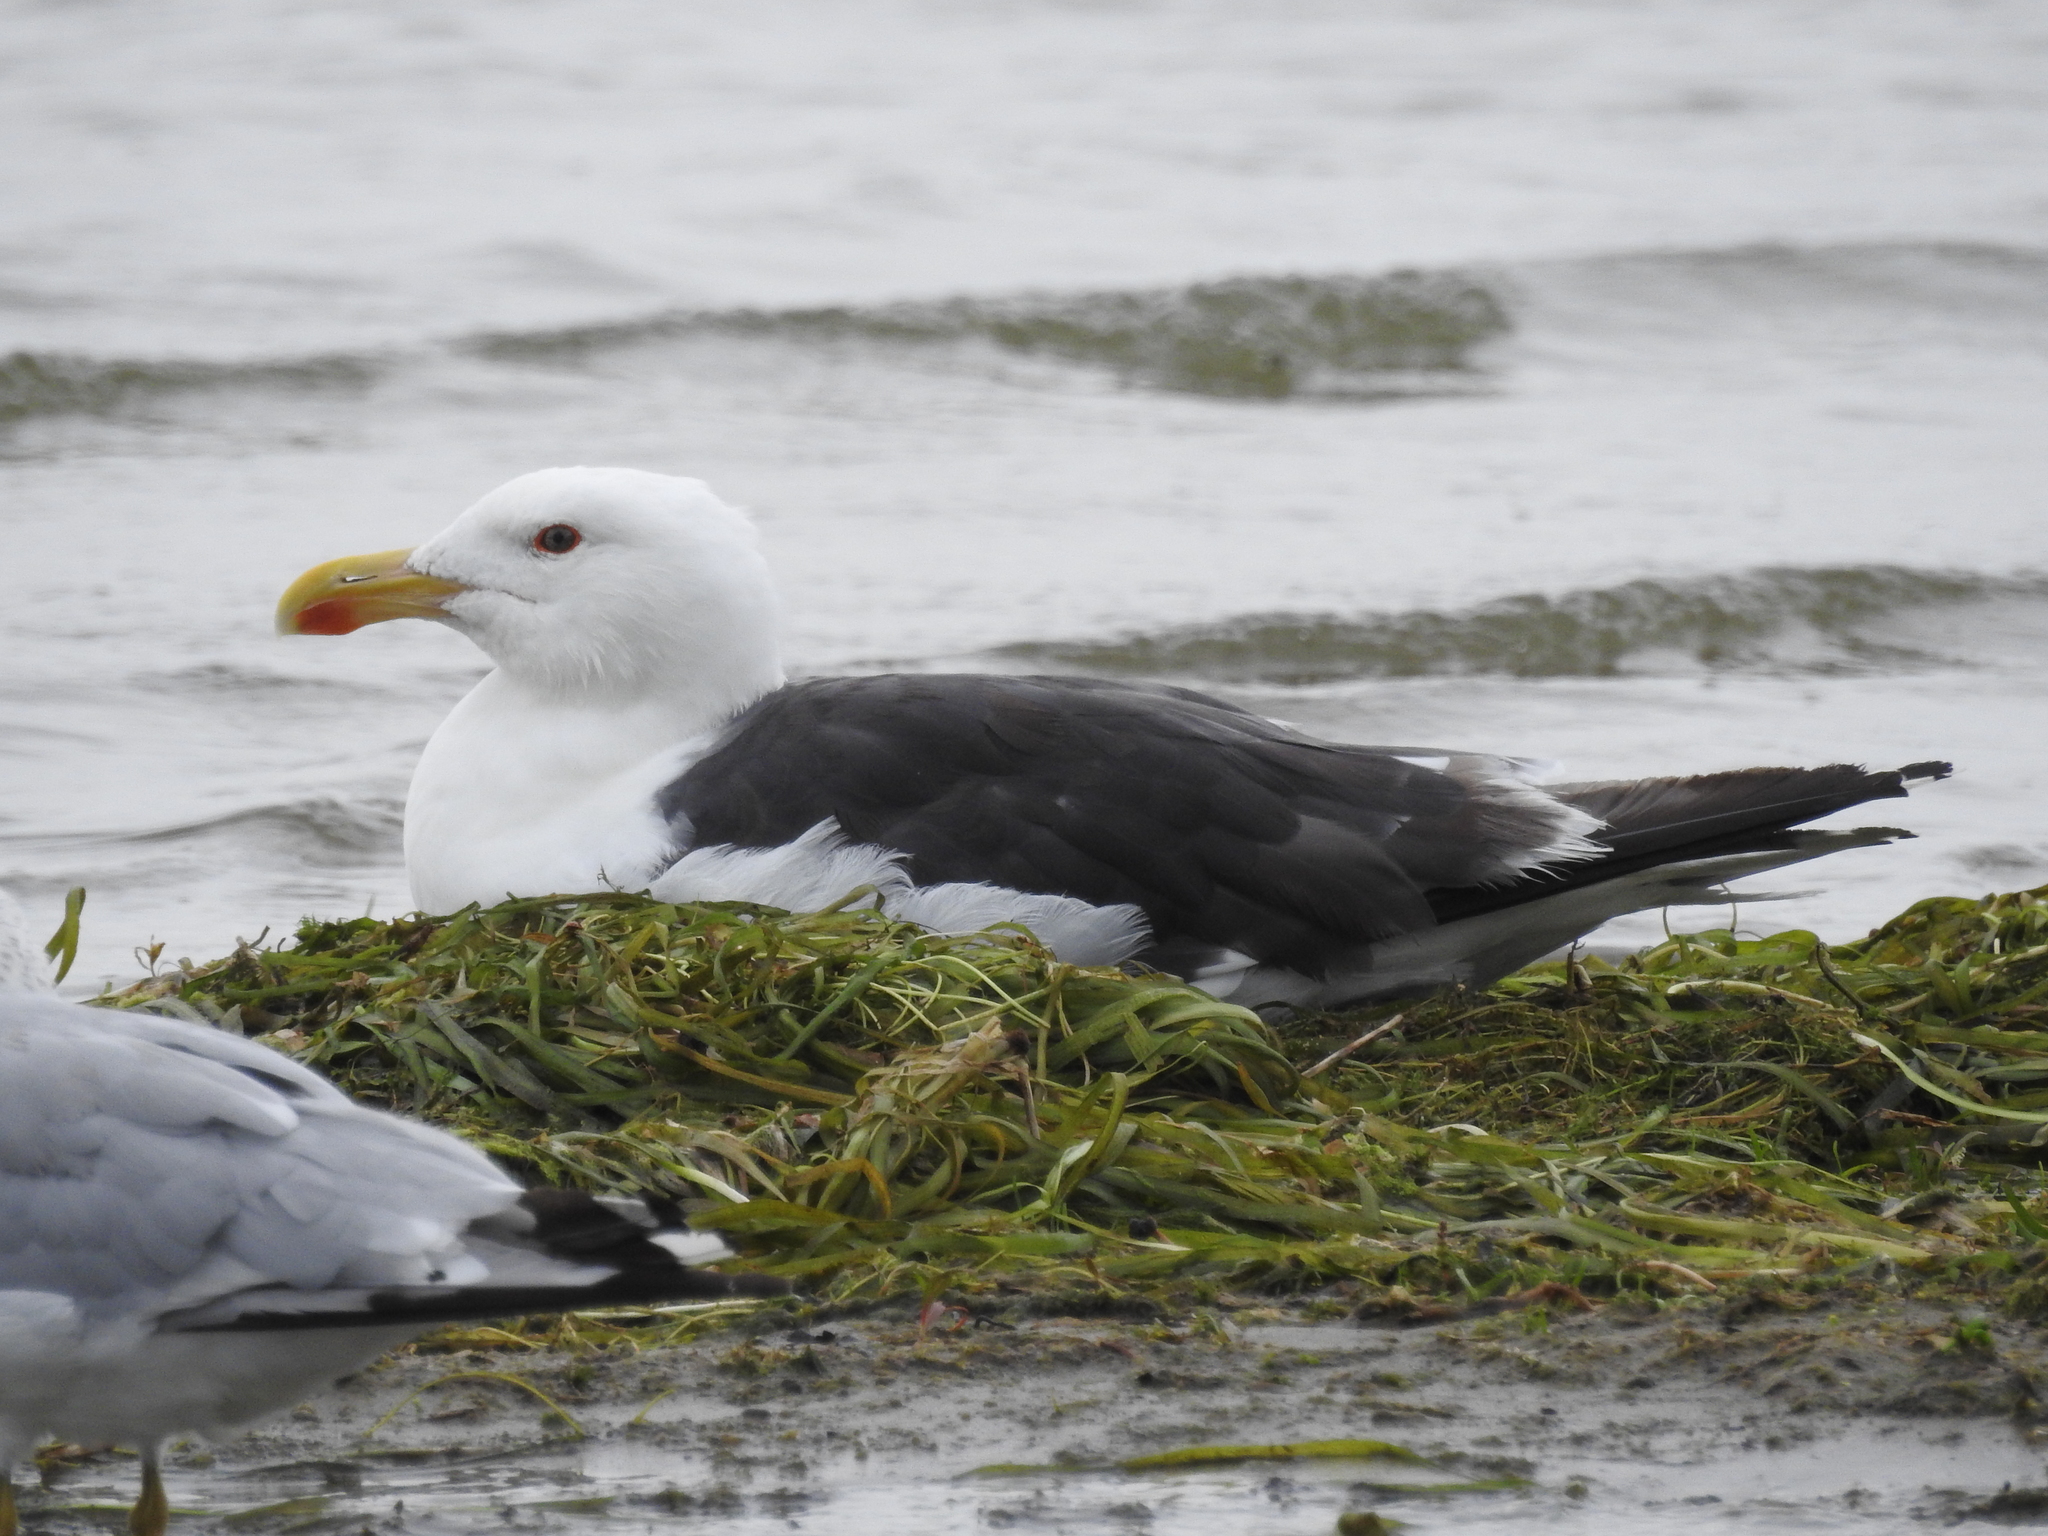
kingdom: Animalia
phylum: Chordata
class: Aves
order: Charadriiformes
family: Laridae
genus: Larus
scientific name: Larus marinus
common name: Great black-backed gull
